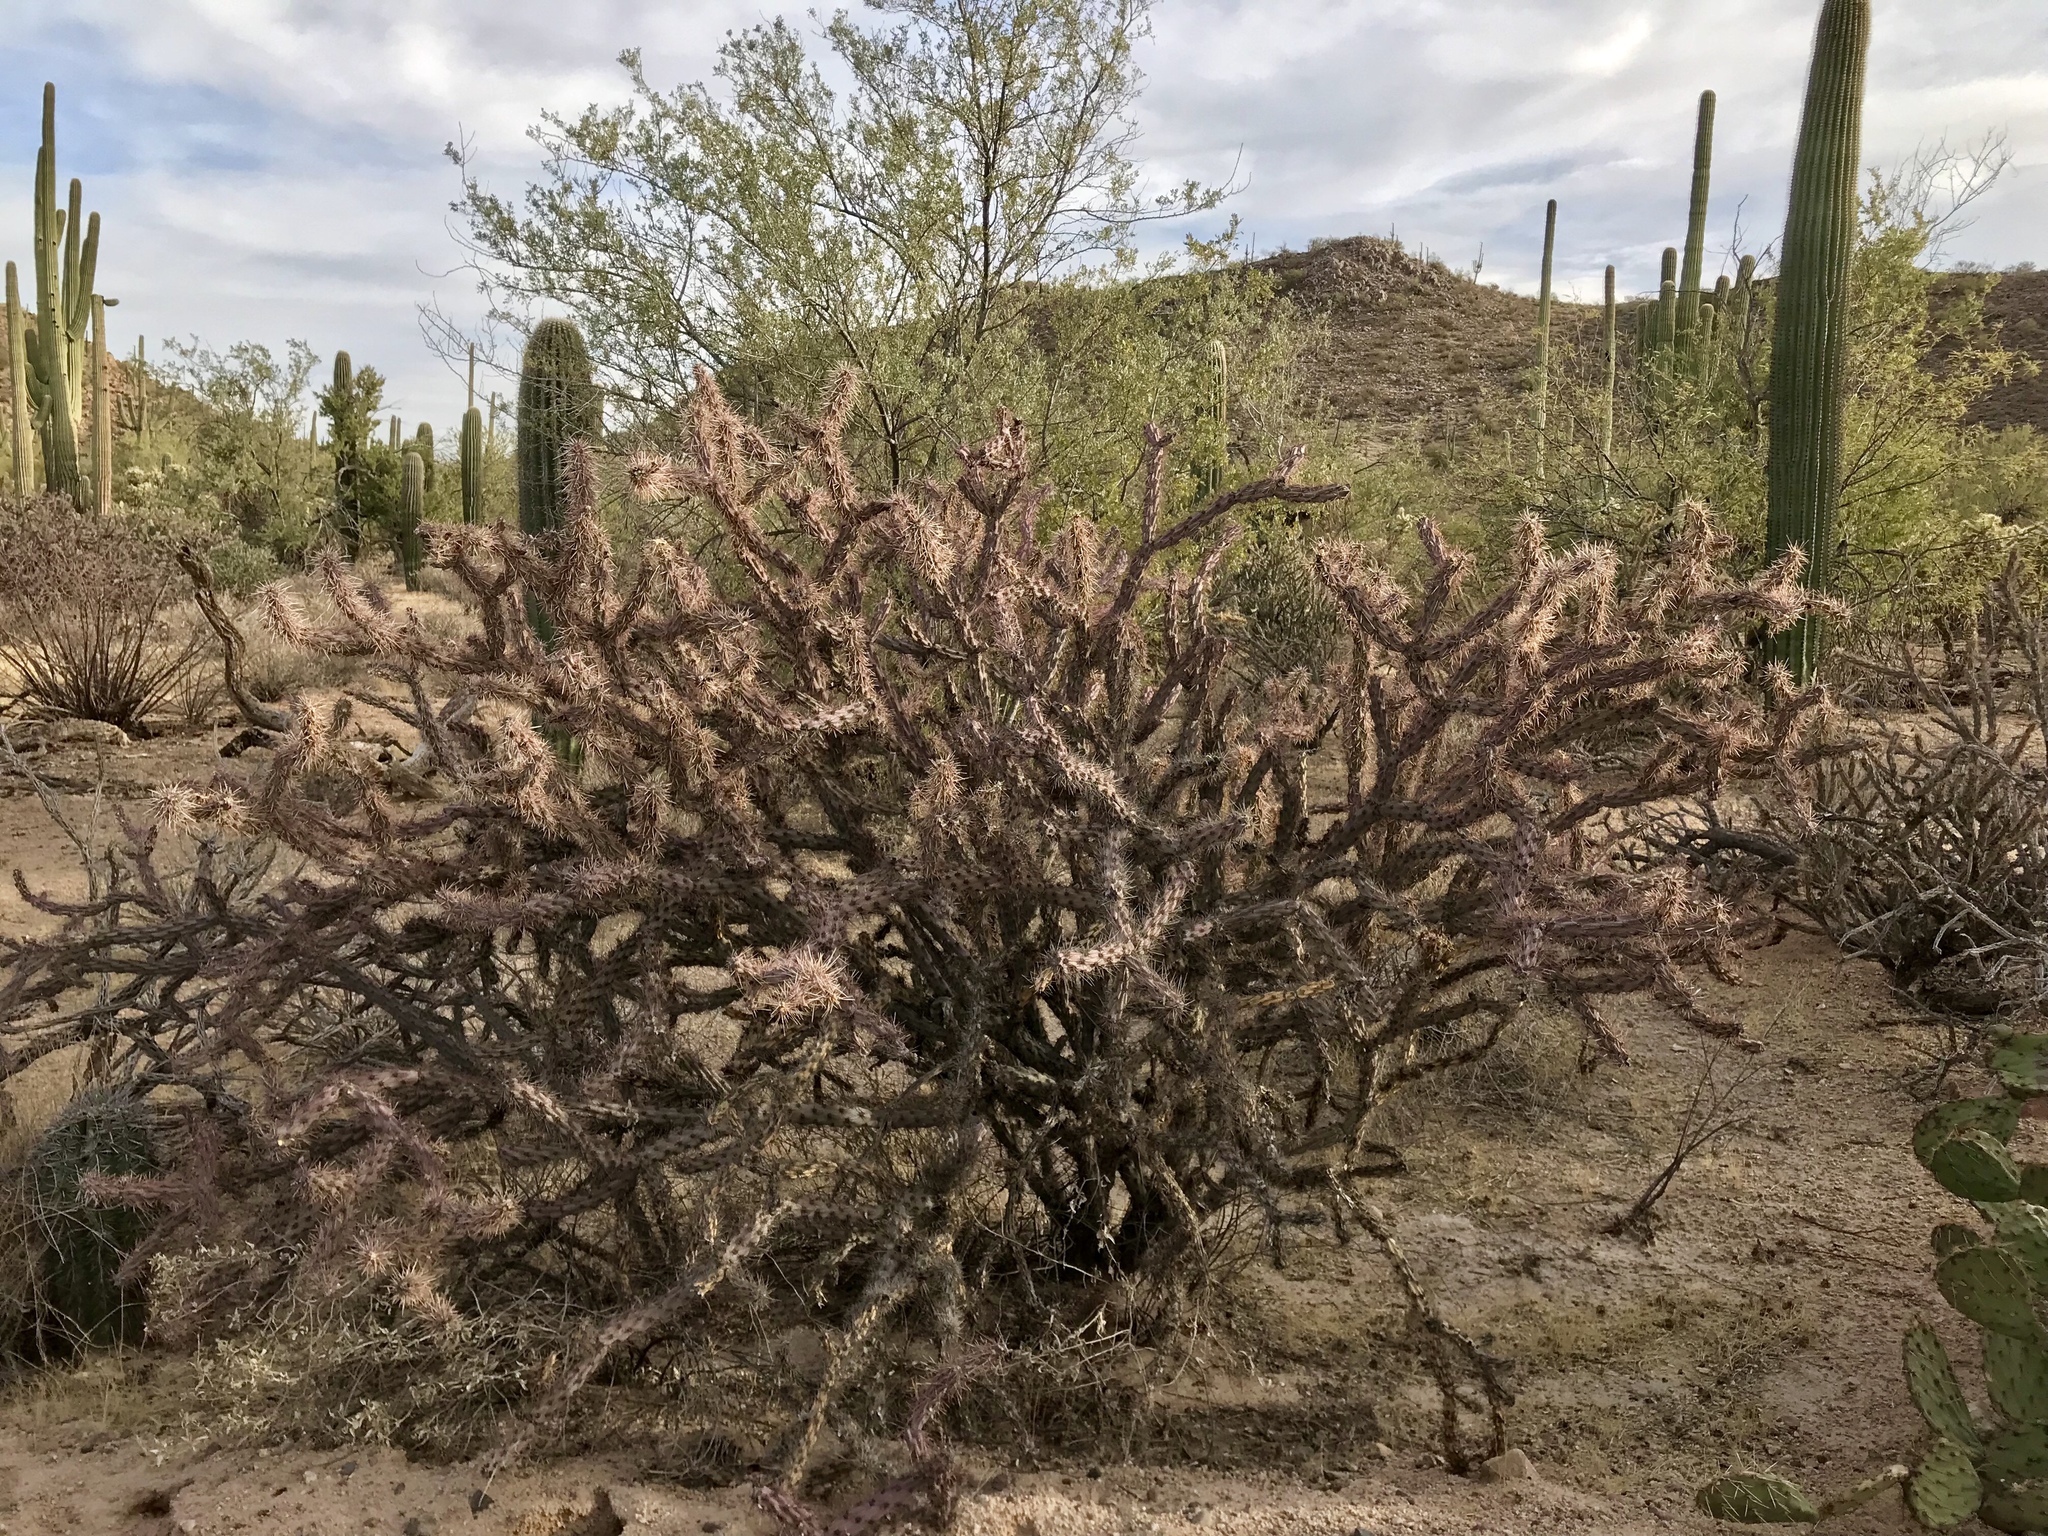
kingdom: Plantae
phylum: Tracheophyta
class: Magnoliopsida
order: Caryophyllales
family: Cactaceae
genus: Cylindropuntia
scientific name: Cylindropuntia acanthocarpa
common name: Buckhorn cholla
